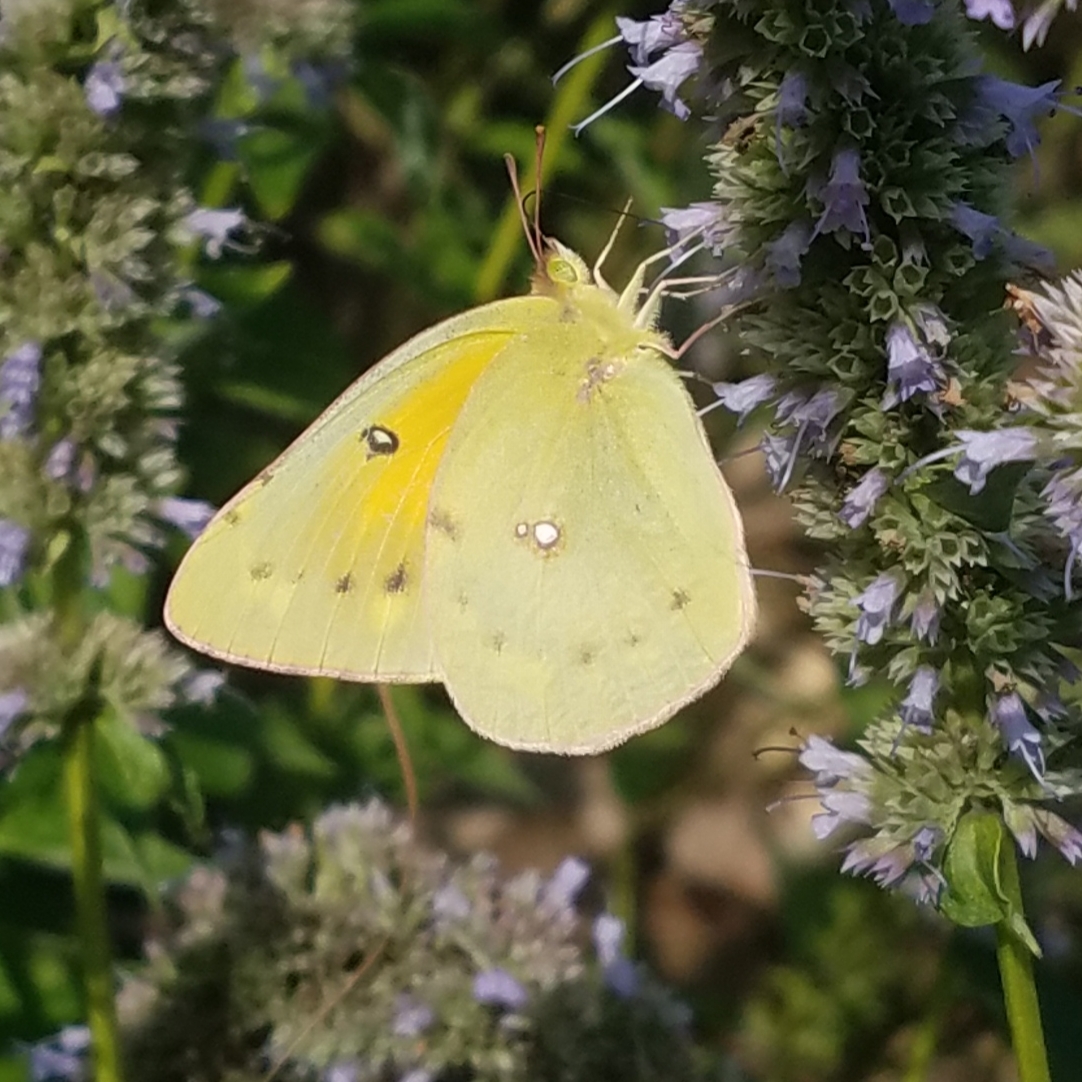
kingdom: Animalia
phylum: Arthropoda
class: Insecta
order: Lepidoptera
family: Pieridae
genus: Colias
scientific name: Colias eurytheme
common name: Alfalfa butterfly
